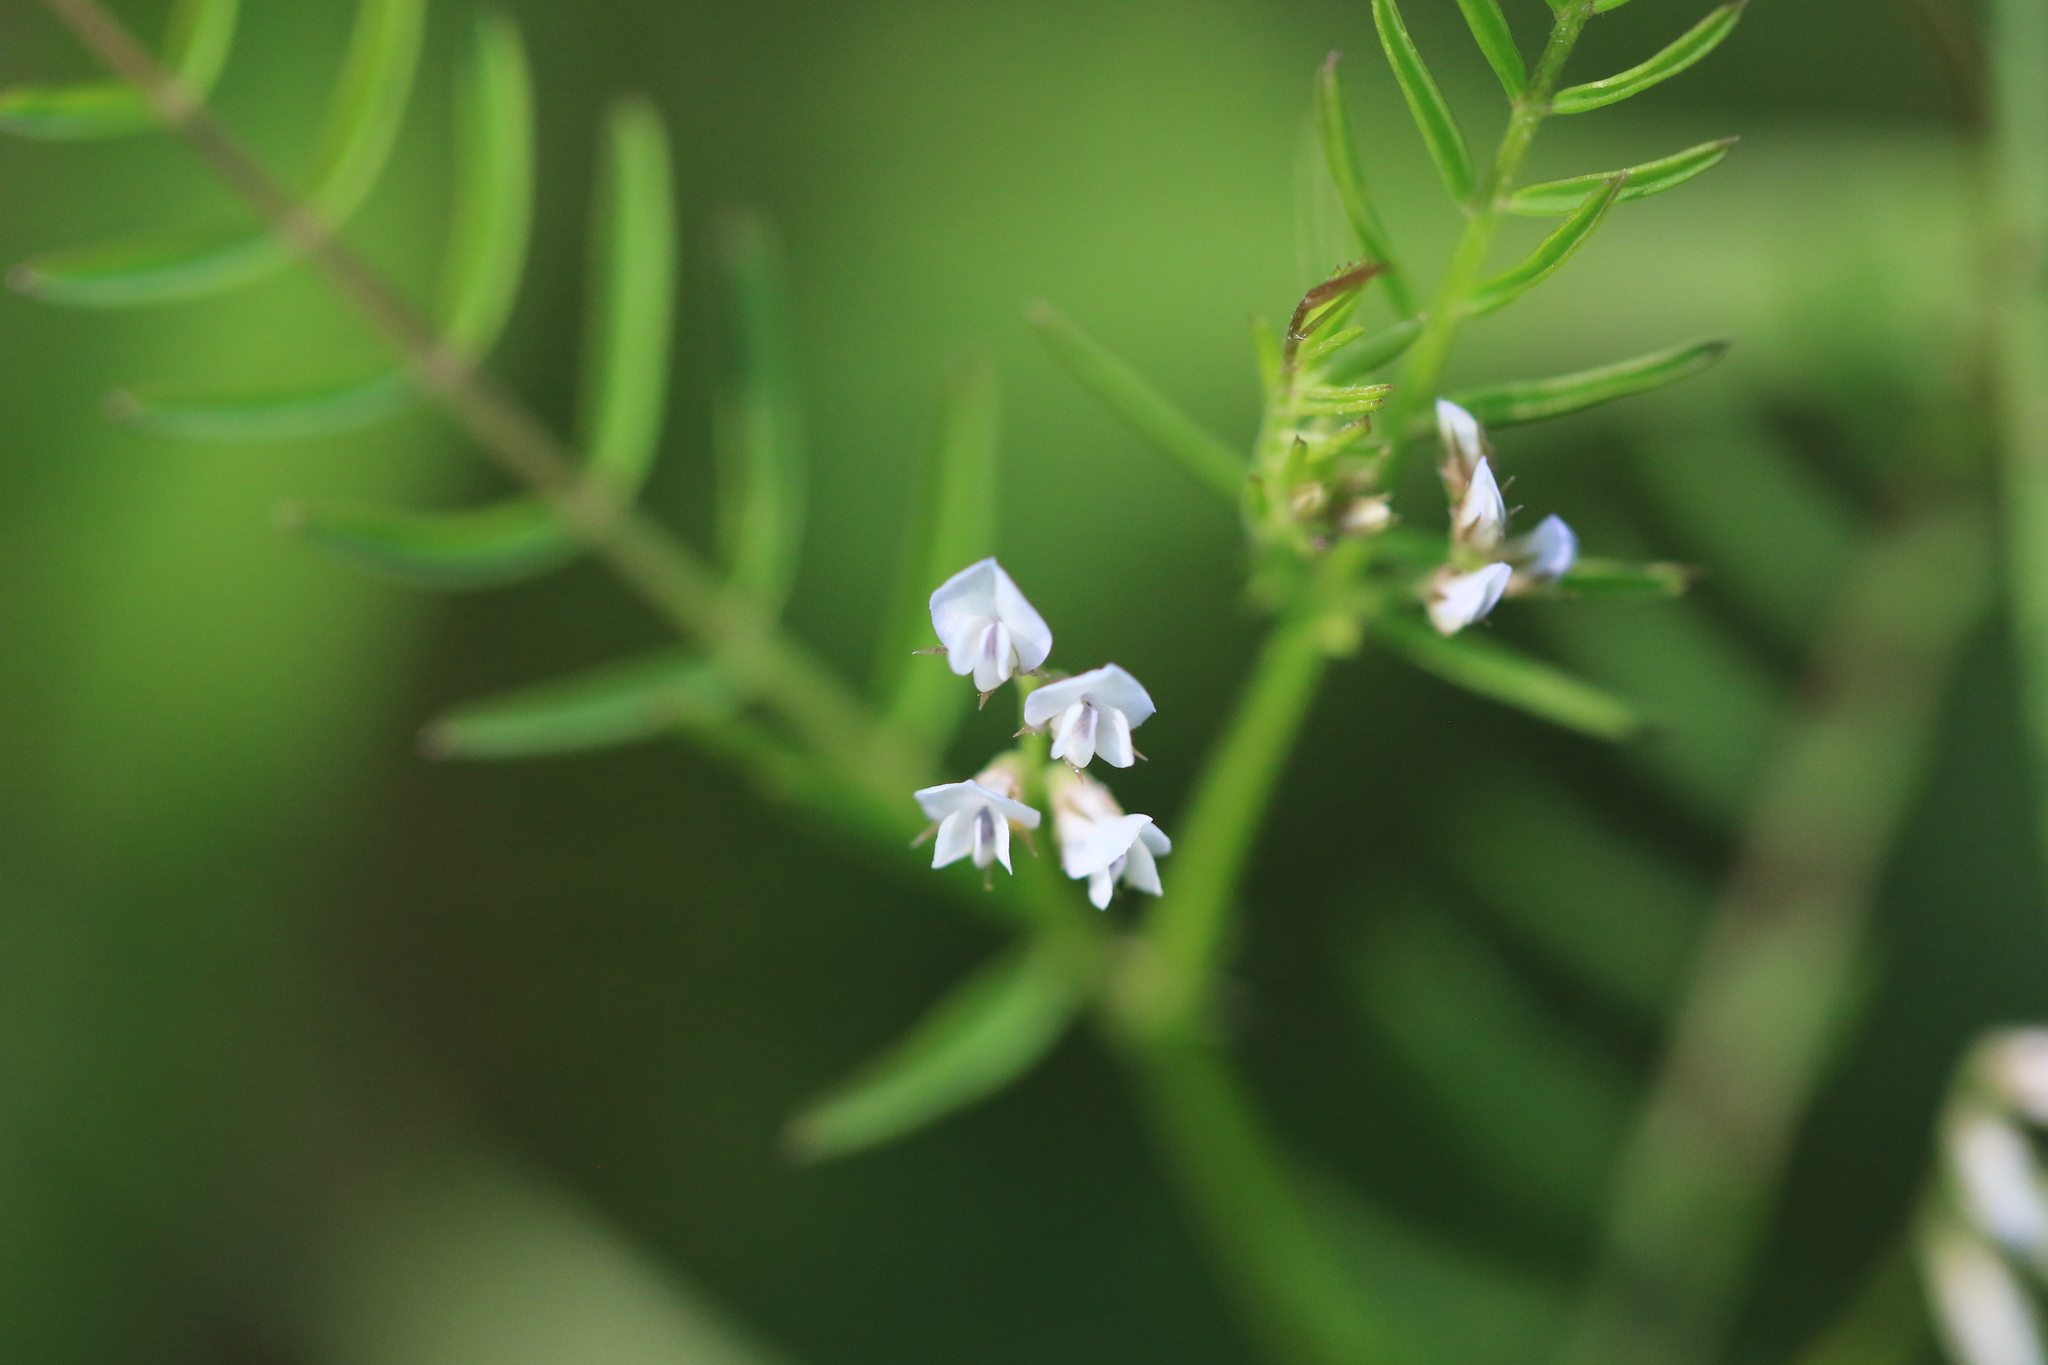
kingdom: Plantae
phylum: Tracheophyta
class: Magnoliopsida
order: Fabales
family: Fabaceae
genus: Vicia
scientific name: Vicia hirsuta
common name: Tiny vetch
